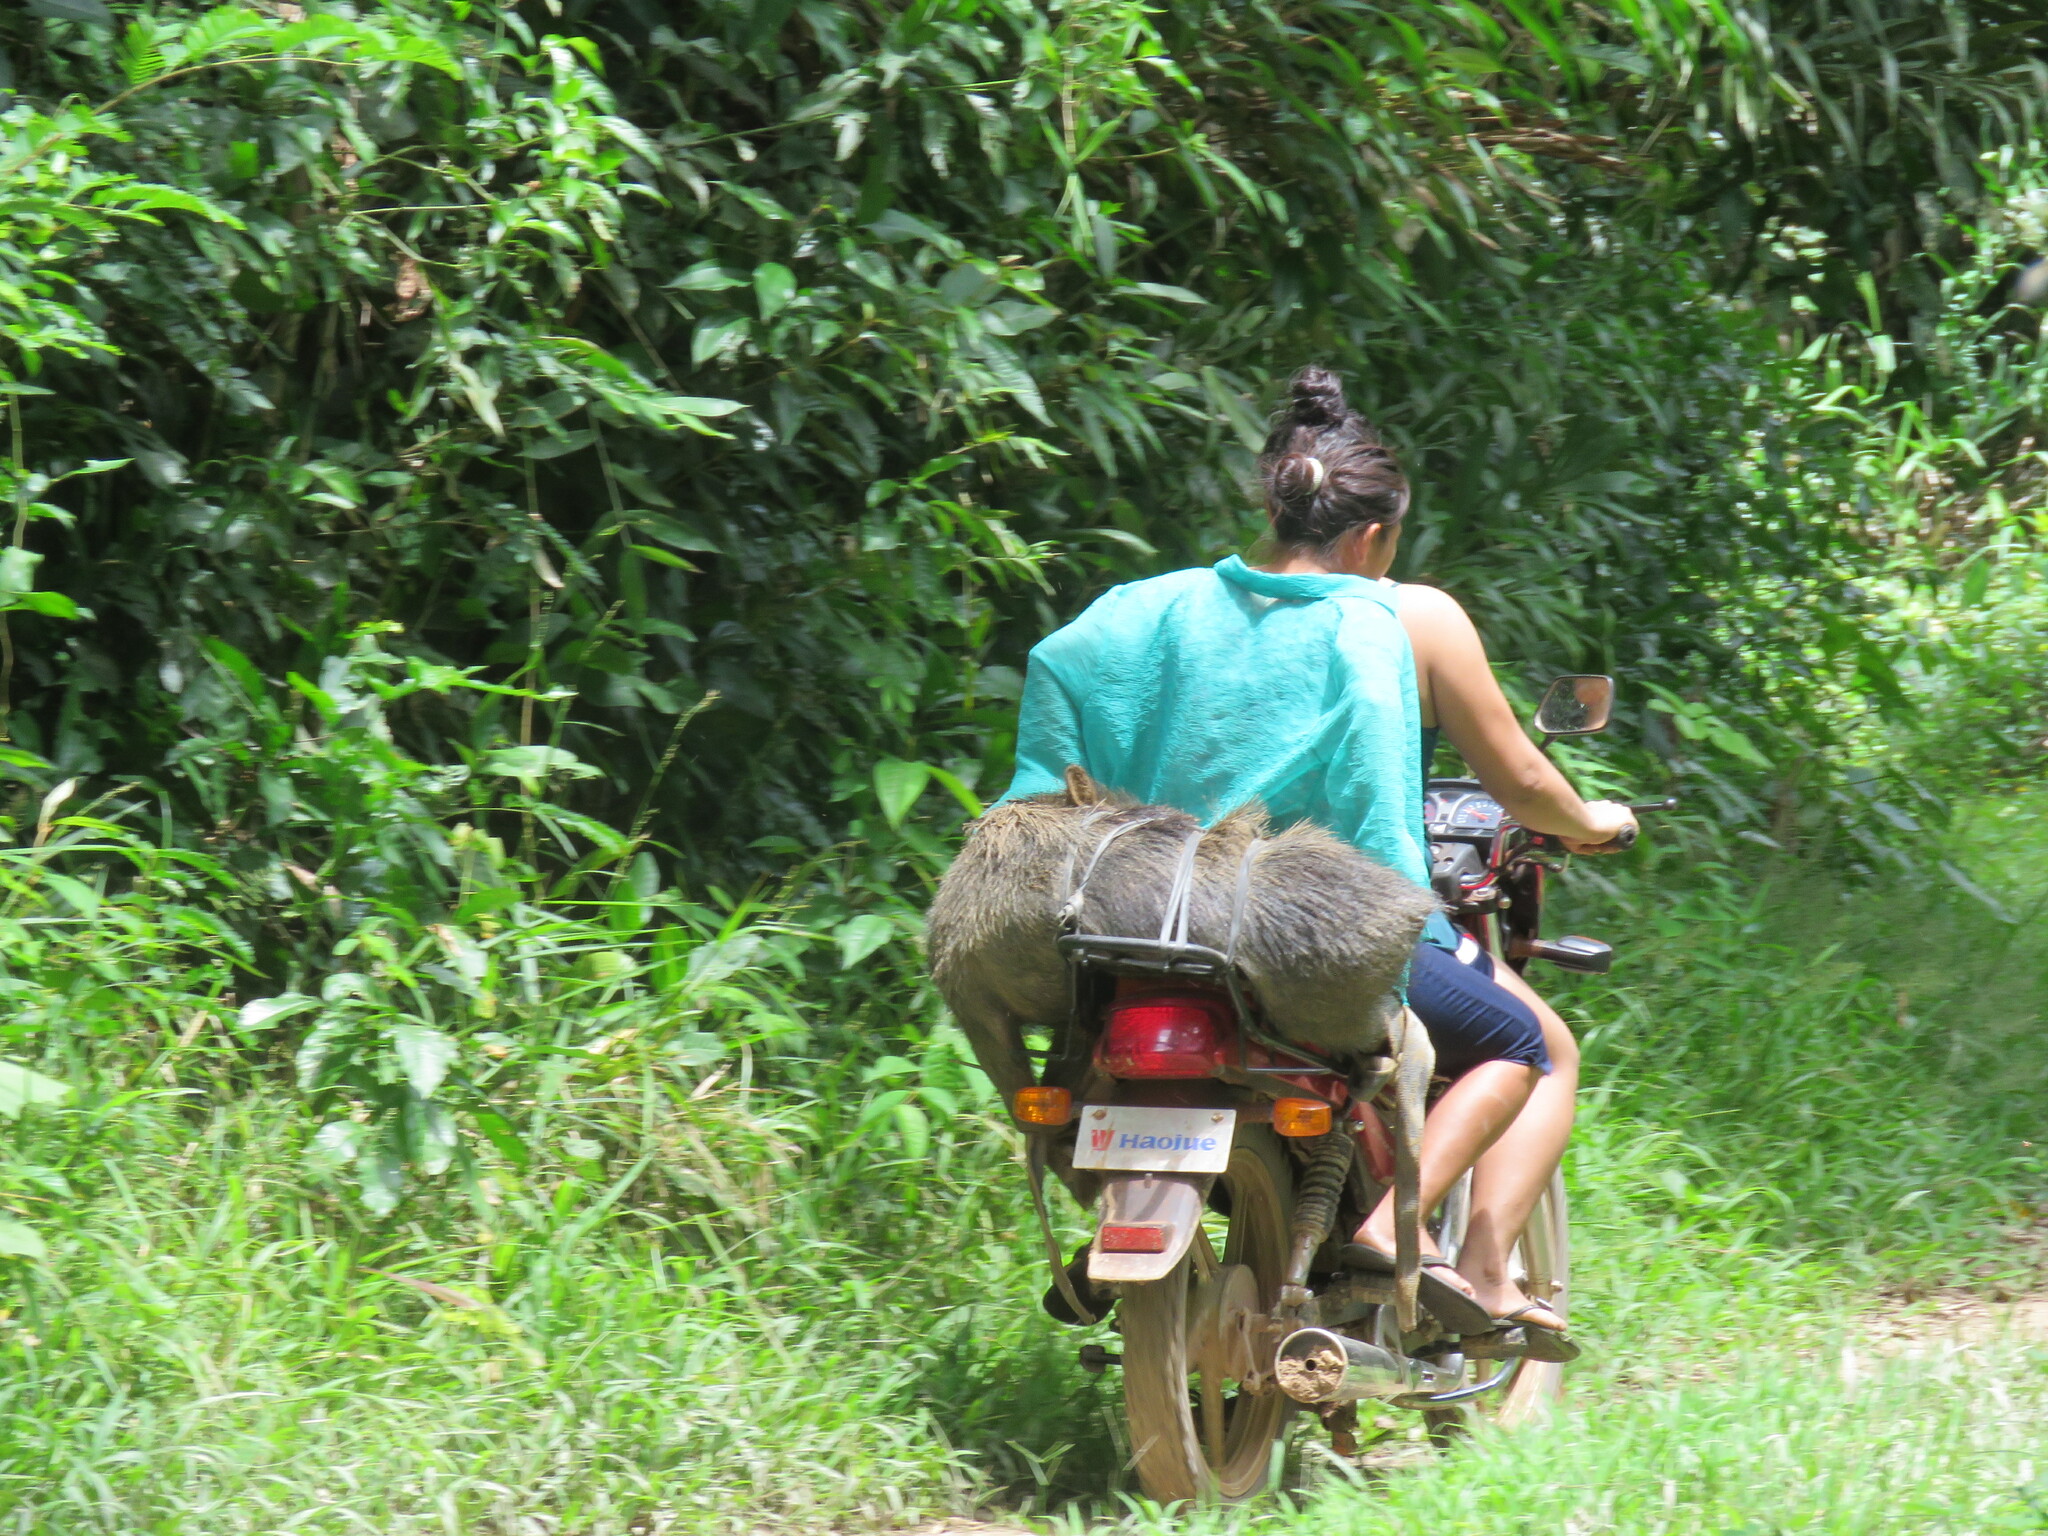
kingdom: Animalia
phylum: Chordata
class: Mammalia
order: Artiodactyla
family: Tayassuidae
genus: Tayassu
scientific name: Tayassu pecari
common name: White-lipped peccary
